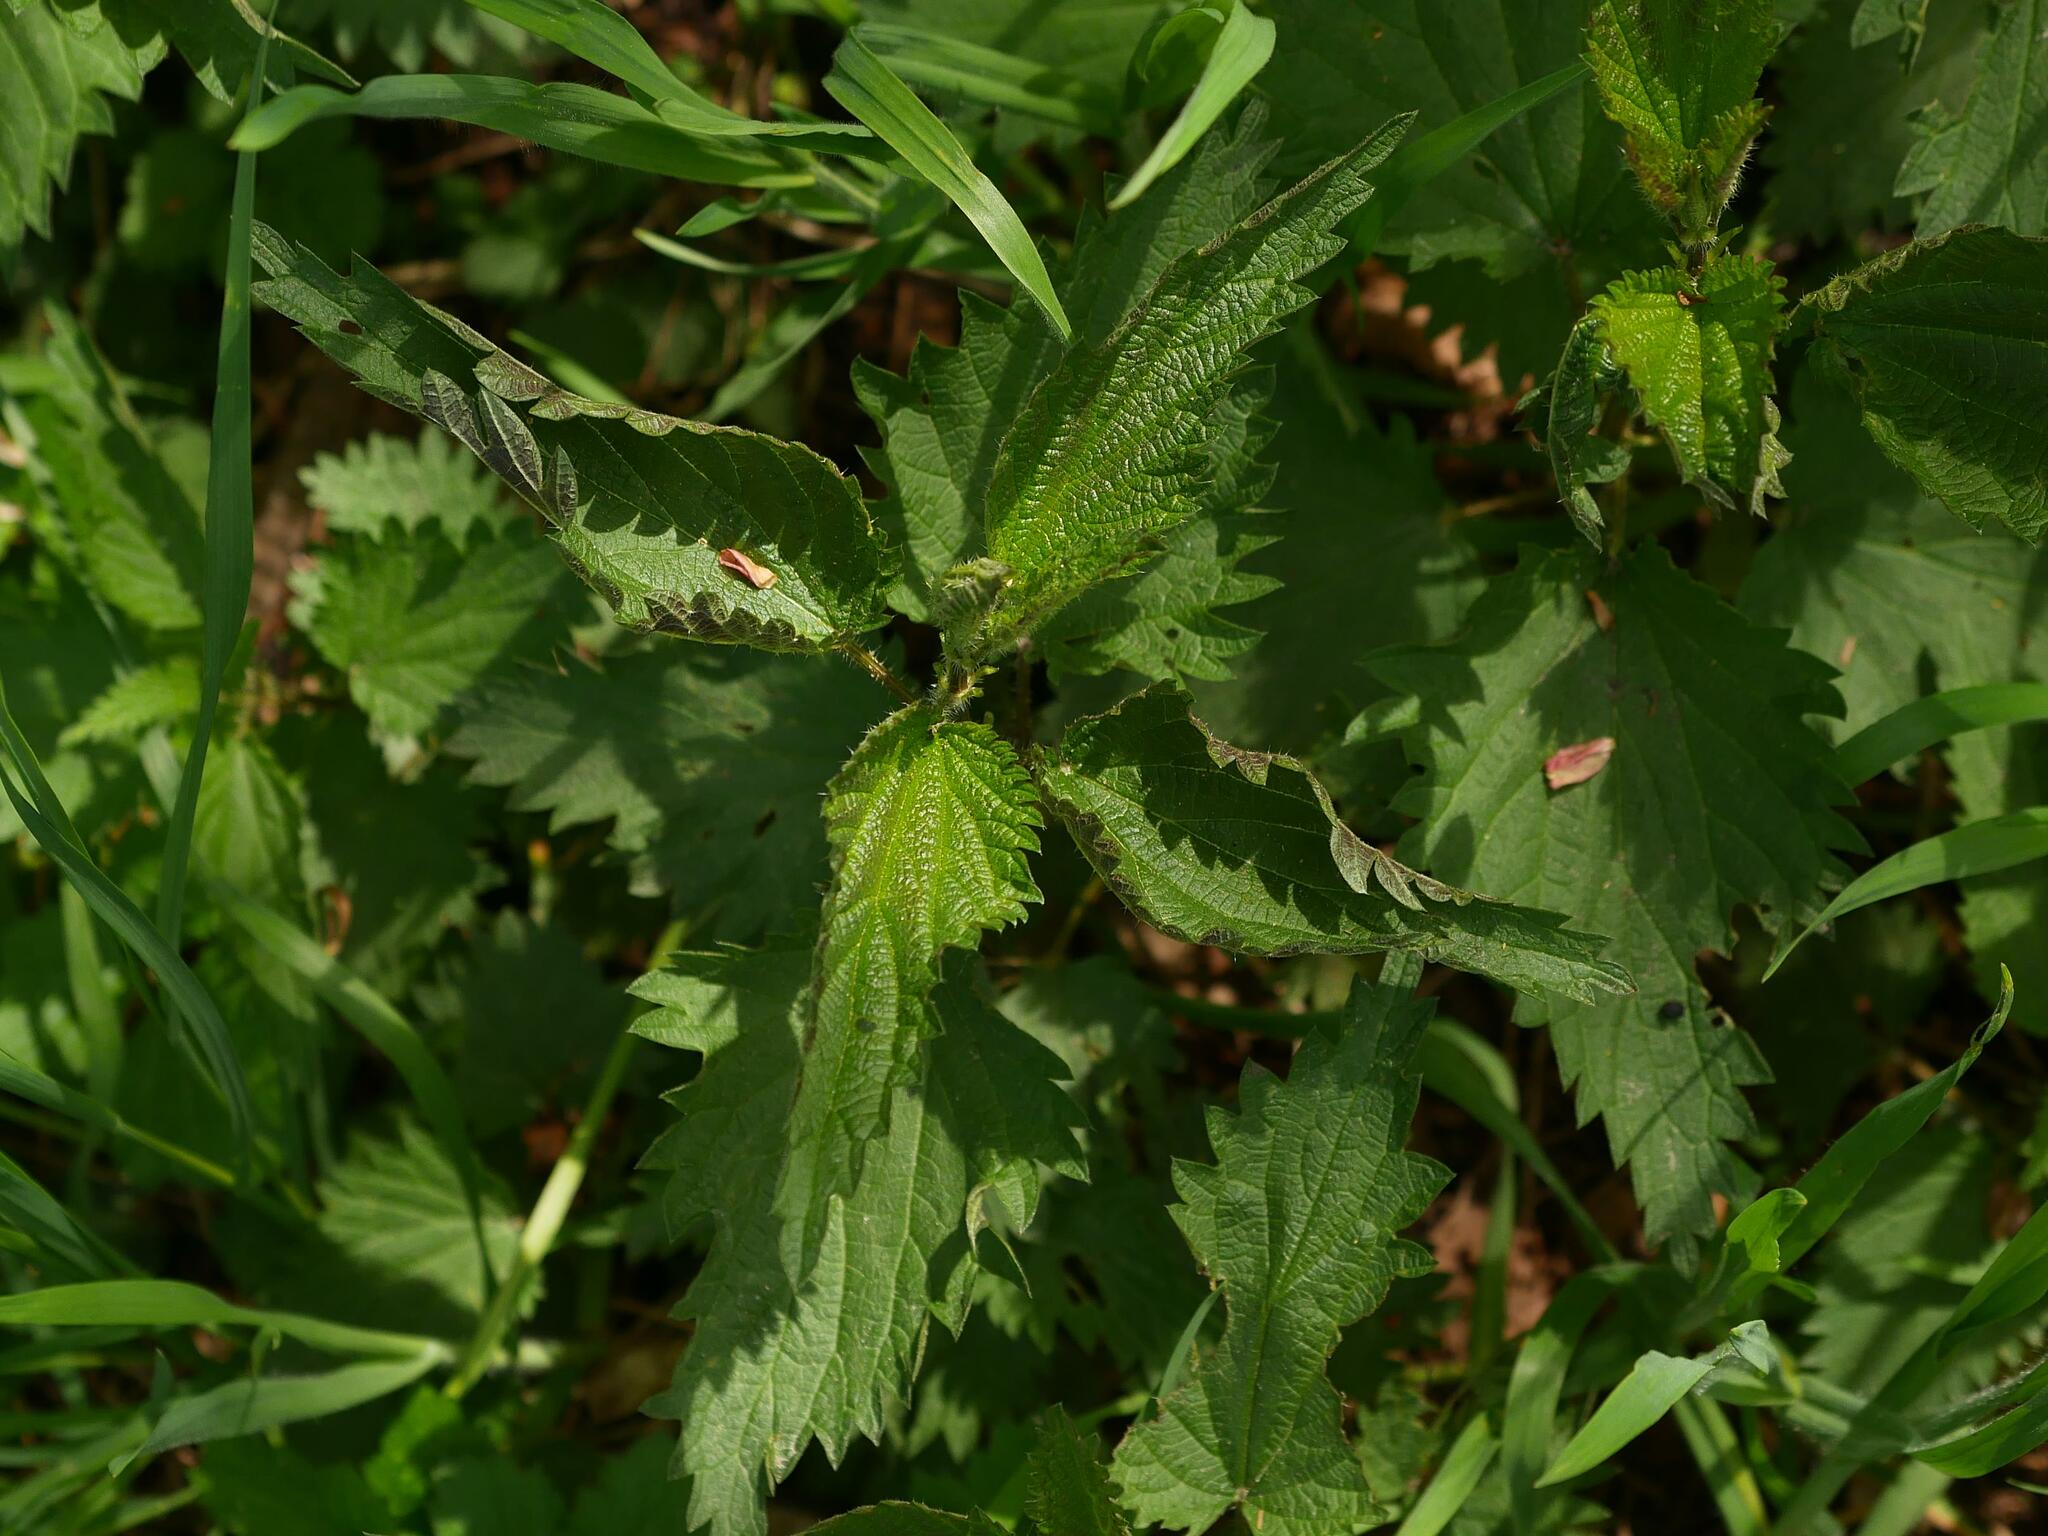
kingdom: Plantae
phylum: Tracheophyta
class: Magnoliopsida
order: Rosales
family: Urticaceae
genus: Urtica
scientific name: Urtica dioica
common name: Common nettle
